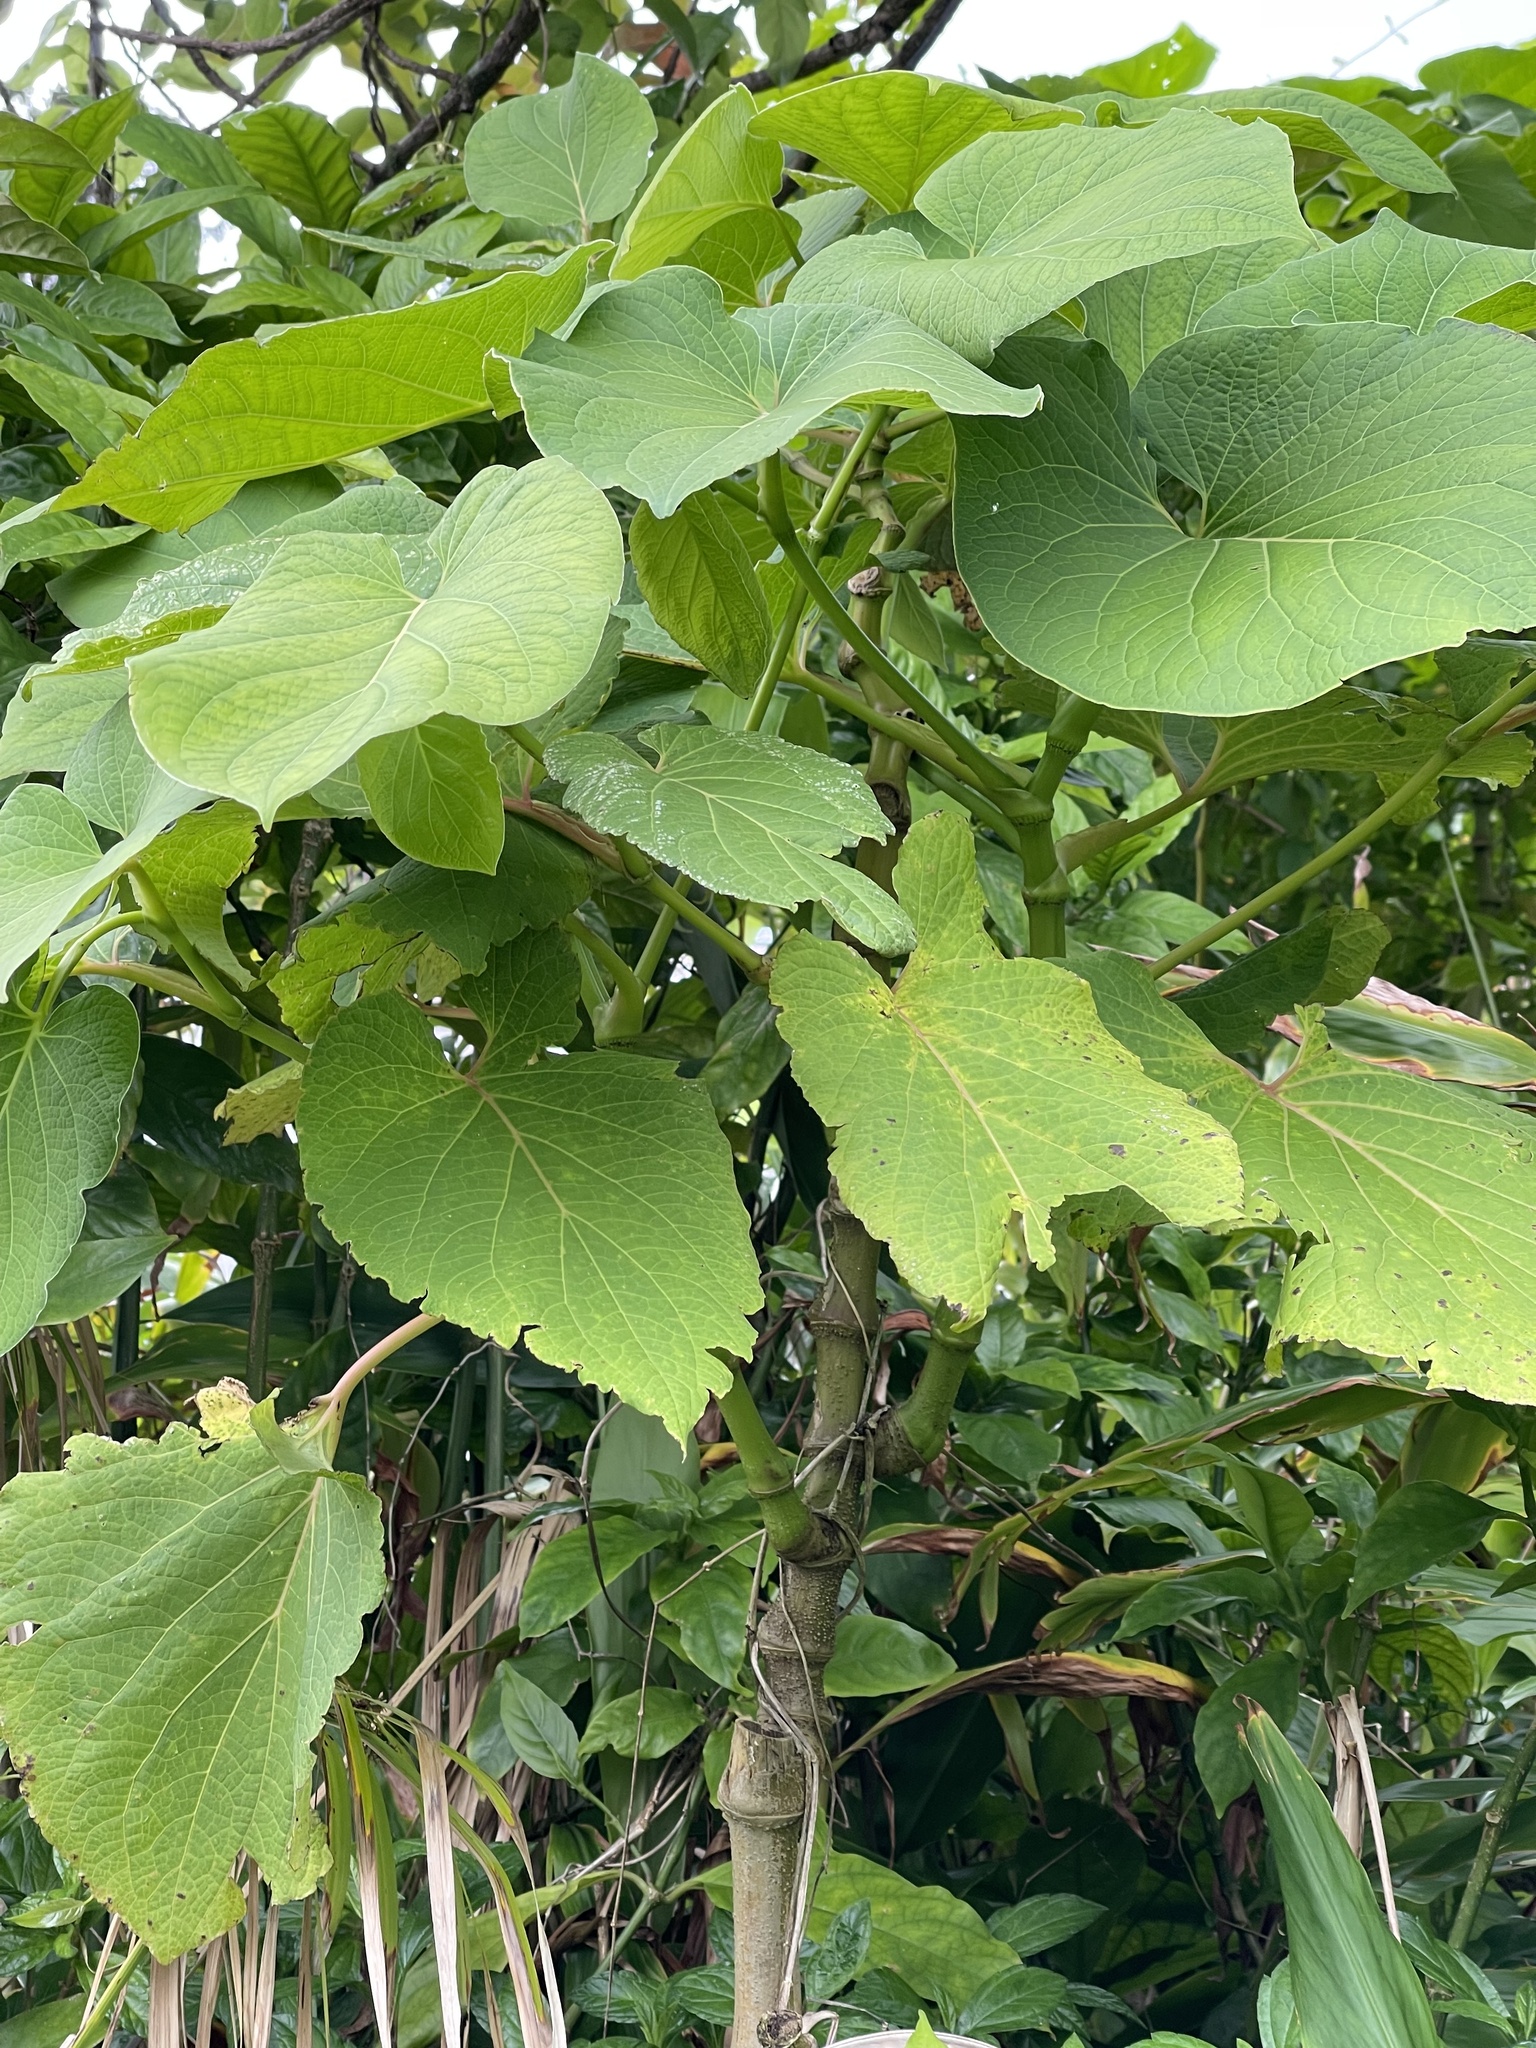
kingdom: Plantae
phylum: Tracheophyta
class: Magnoliopsida
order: Piperales
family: Piperaceae
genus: Piper
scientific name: Piper auritum
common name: Vera cruz pepper
